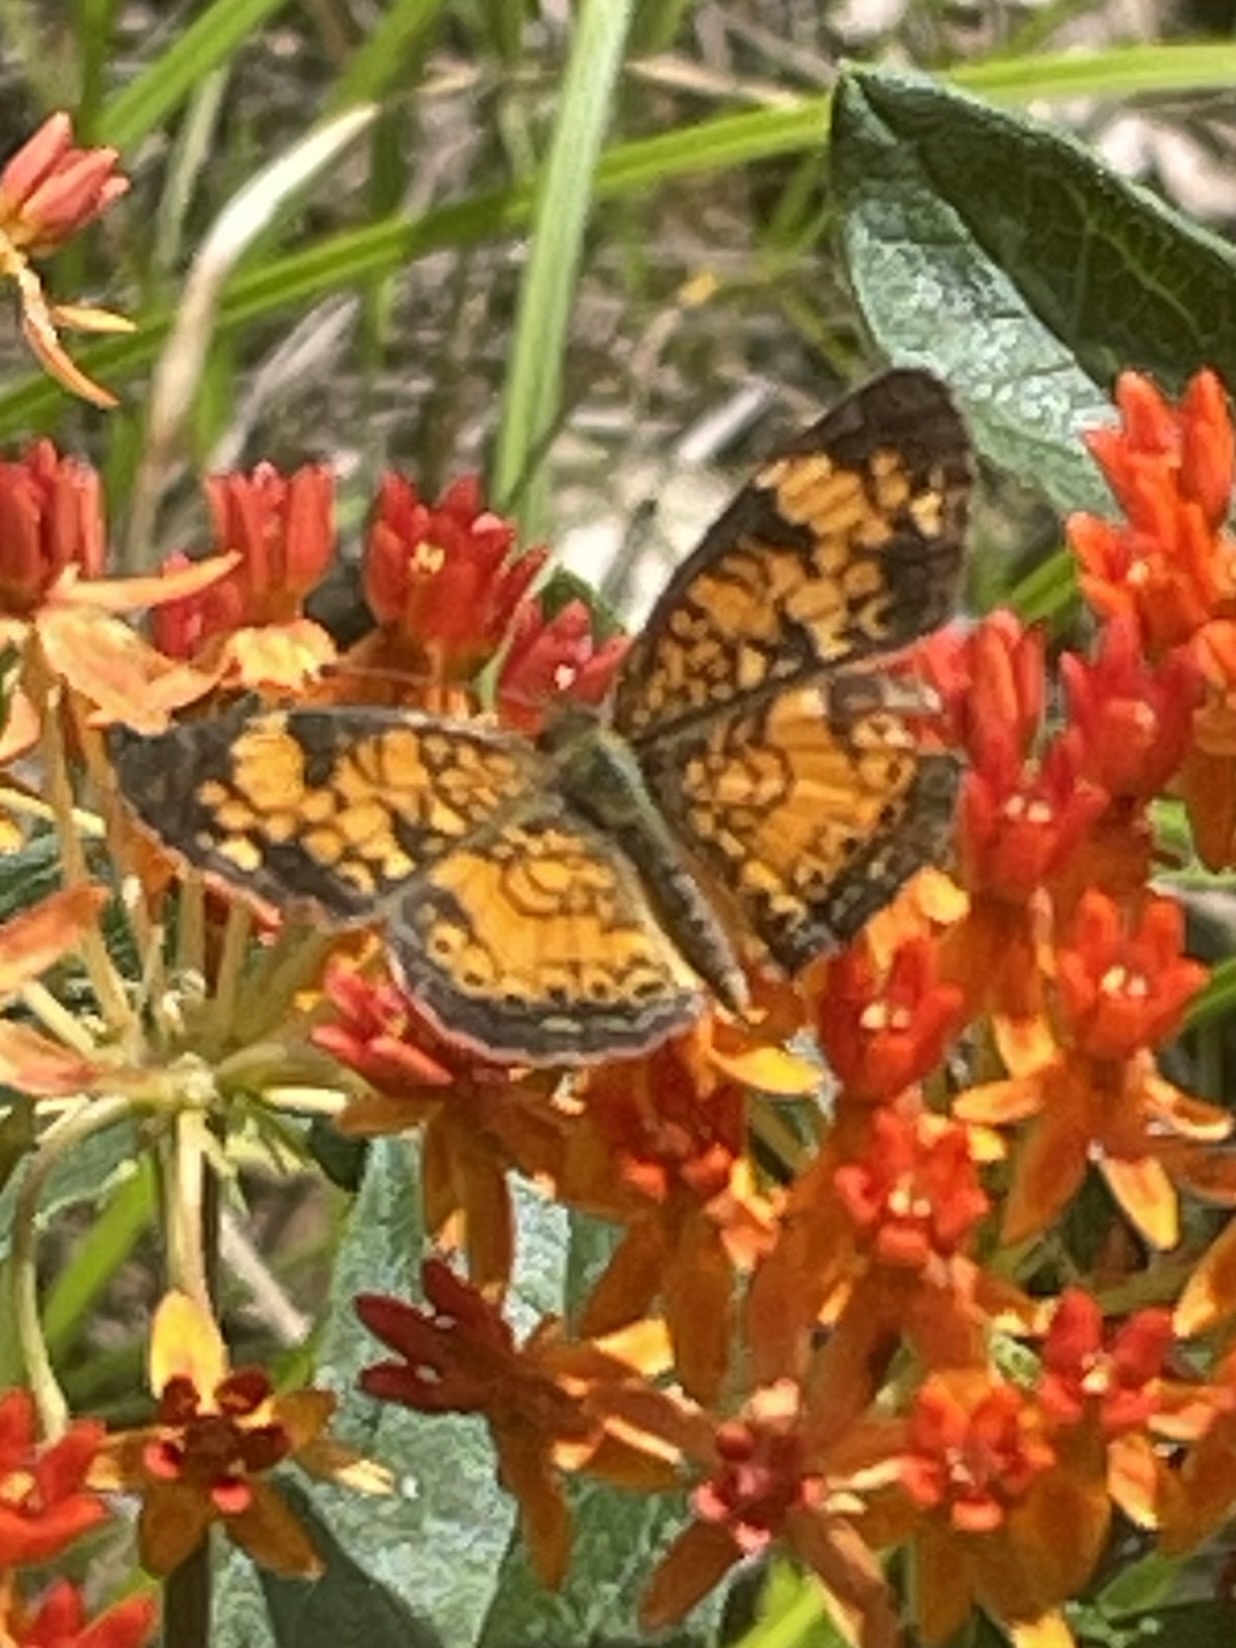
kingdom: Animalia
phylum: Arthropoda
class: Insecta
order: Lepidoptera
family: Nymphalidae
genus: Phyciodes
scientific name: Phyciodes tharos
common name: Pearl crescent
